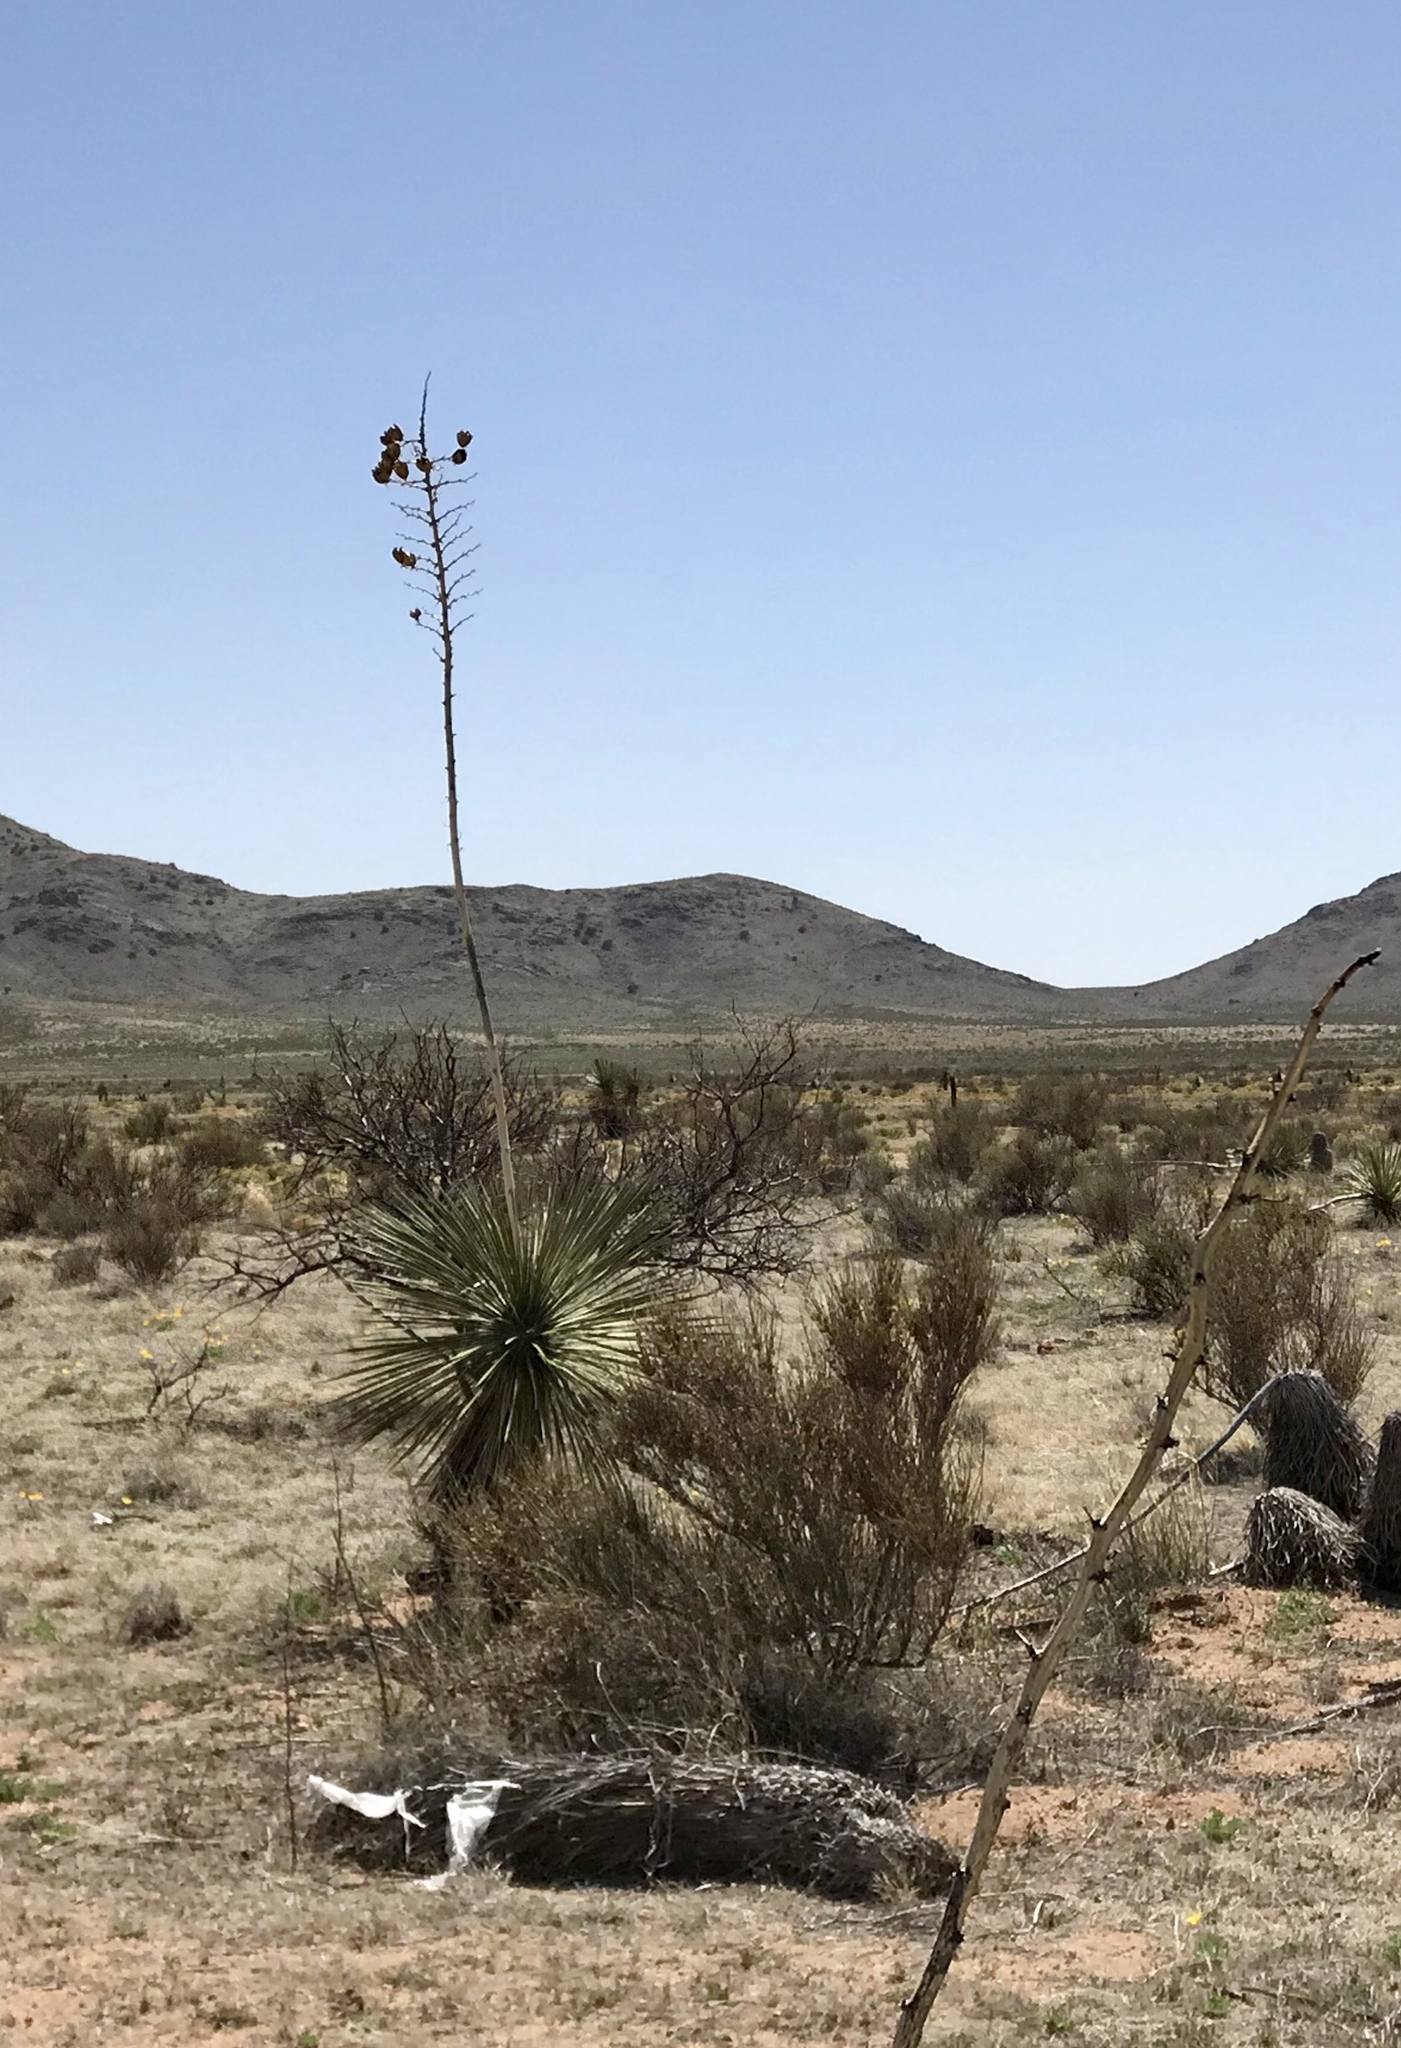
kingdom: Plantae
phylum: Tracheophyta
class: Liliopsida
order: Asparagales
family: Asparagaceae
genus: Yucca
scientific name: Yucca elata
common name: Palmella
